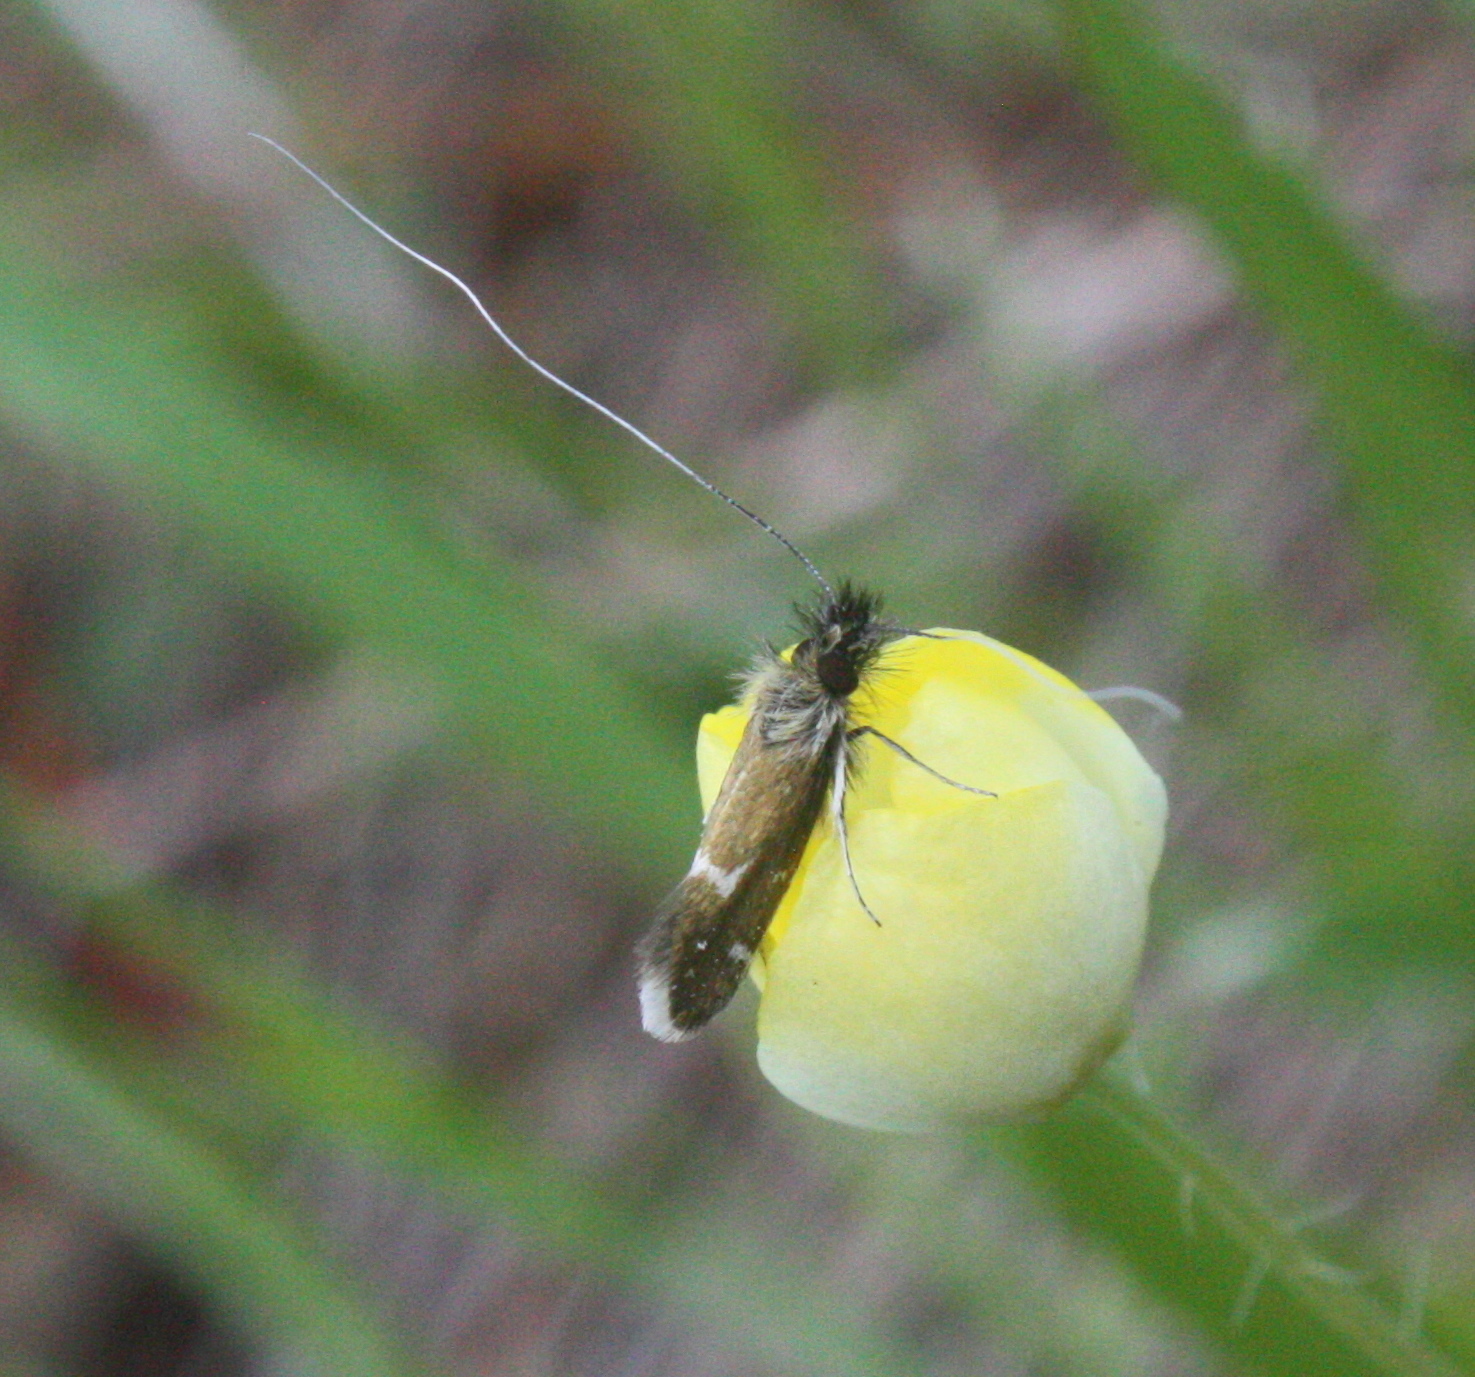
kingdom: Animalia
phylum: Arthropoda
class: Insecta
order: Lepidoptera
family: Adelidae
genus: Adela
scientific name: Adela thorpella
